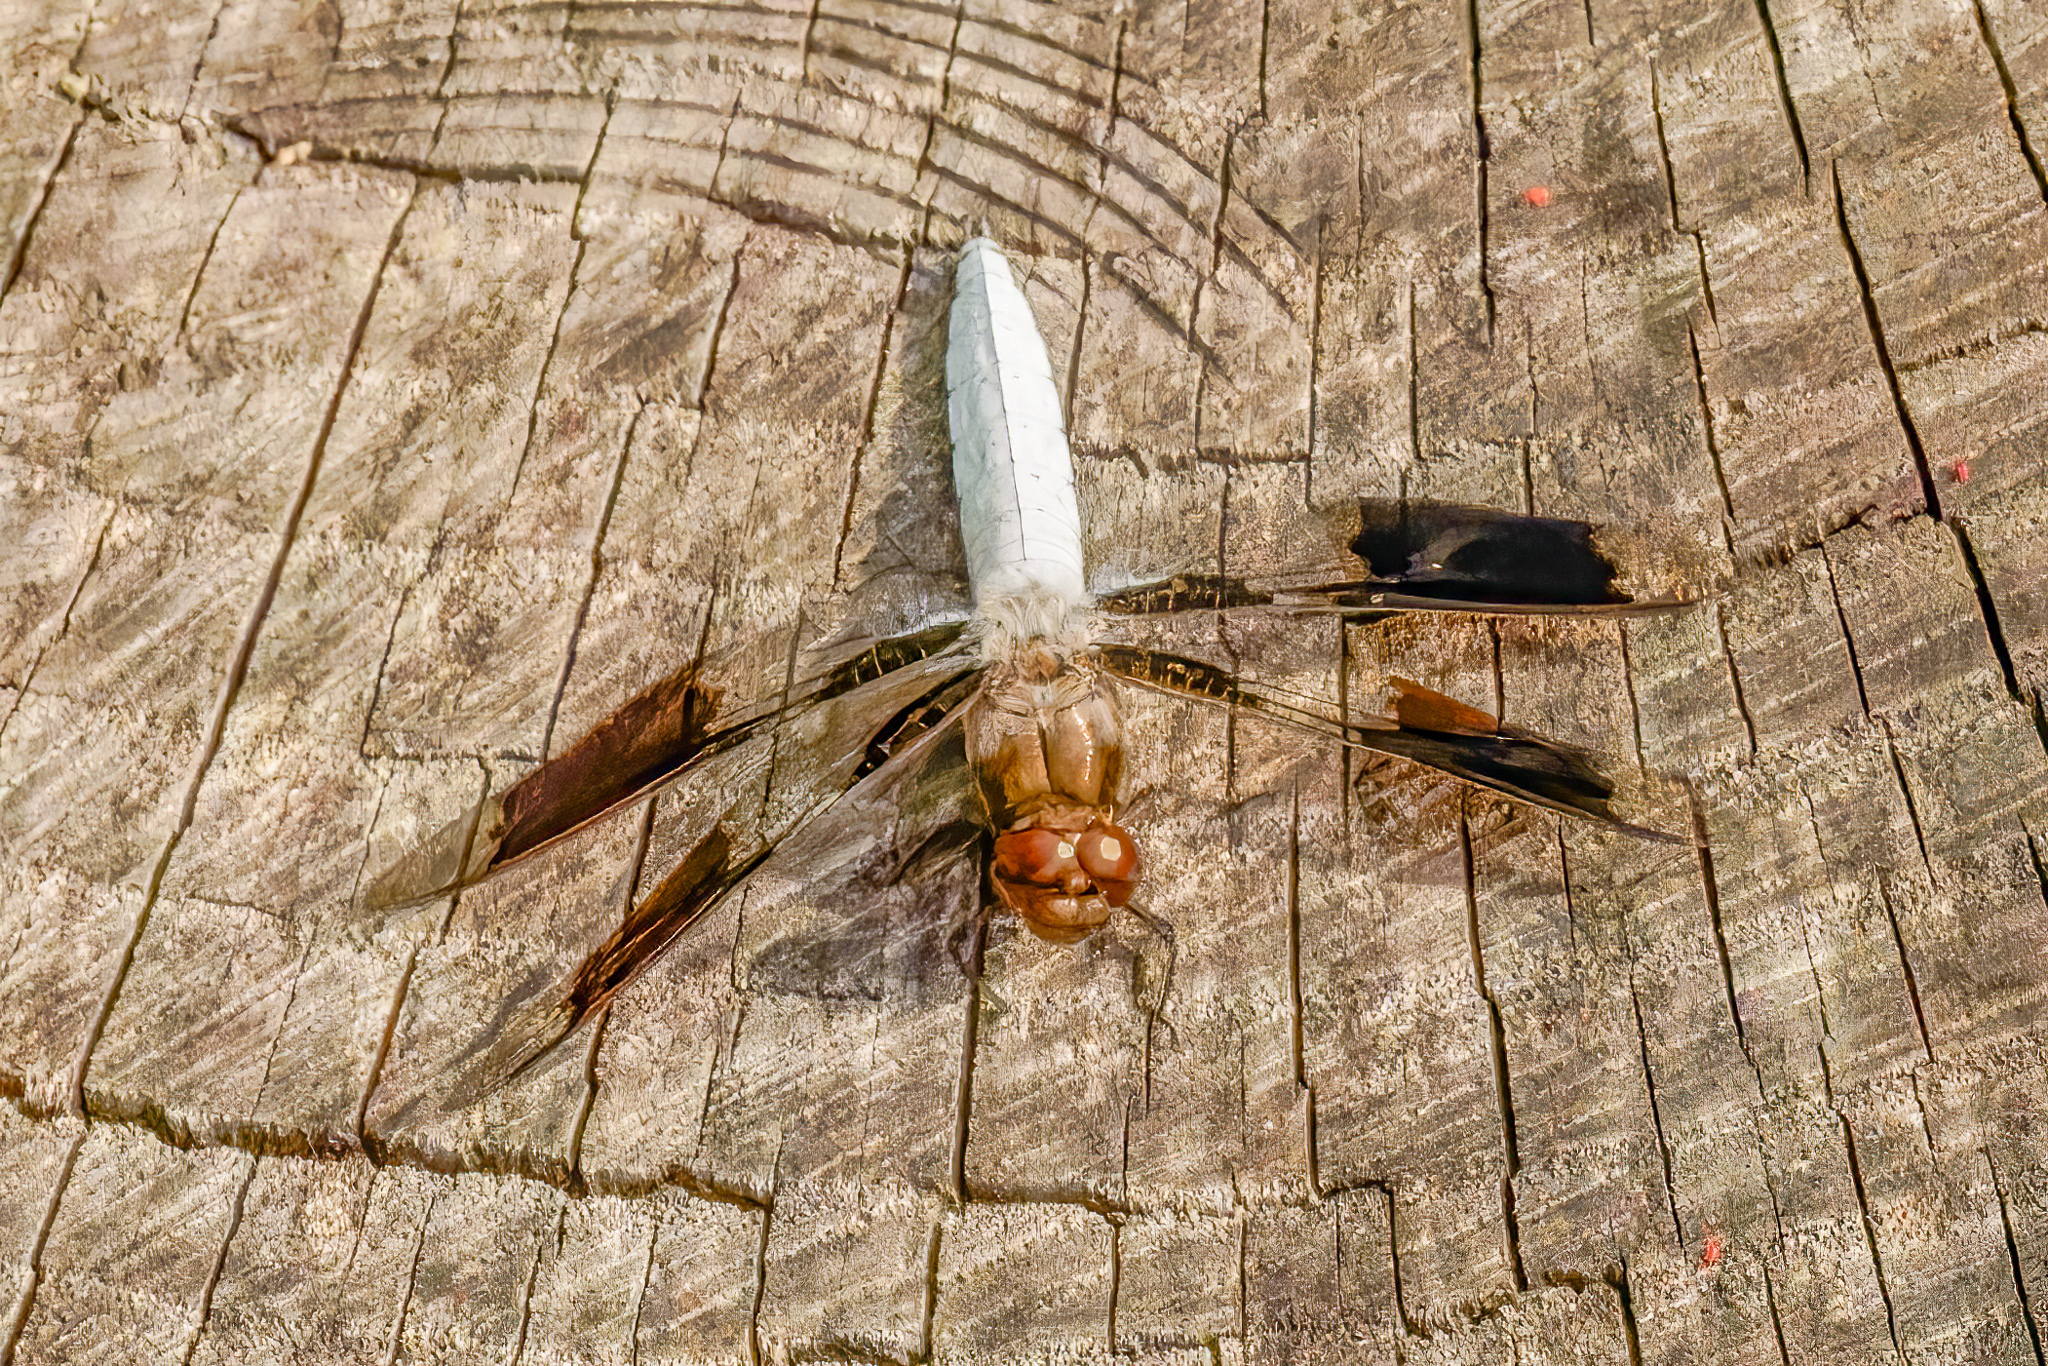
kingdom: Animalia
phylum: Arthropoda
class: Insecta
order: Odonata
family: Libellulidae
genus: Plathemis
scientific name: Plathemis lydia
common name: Common whitetail
